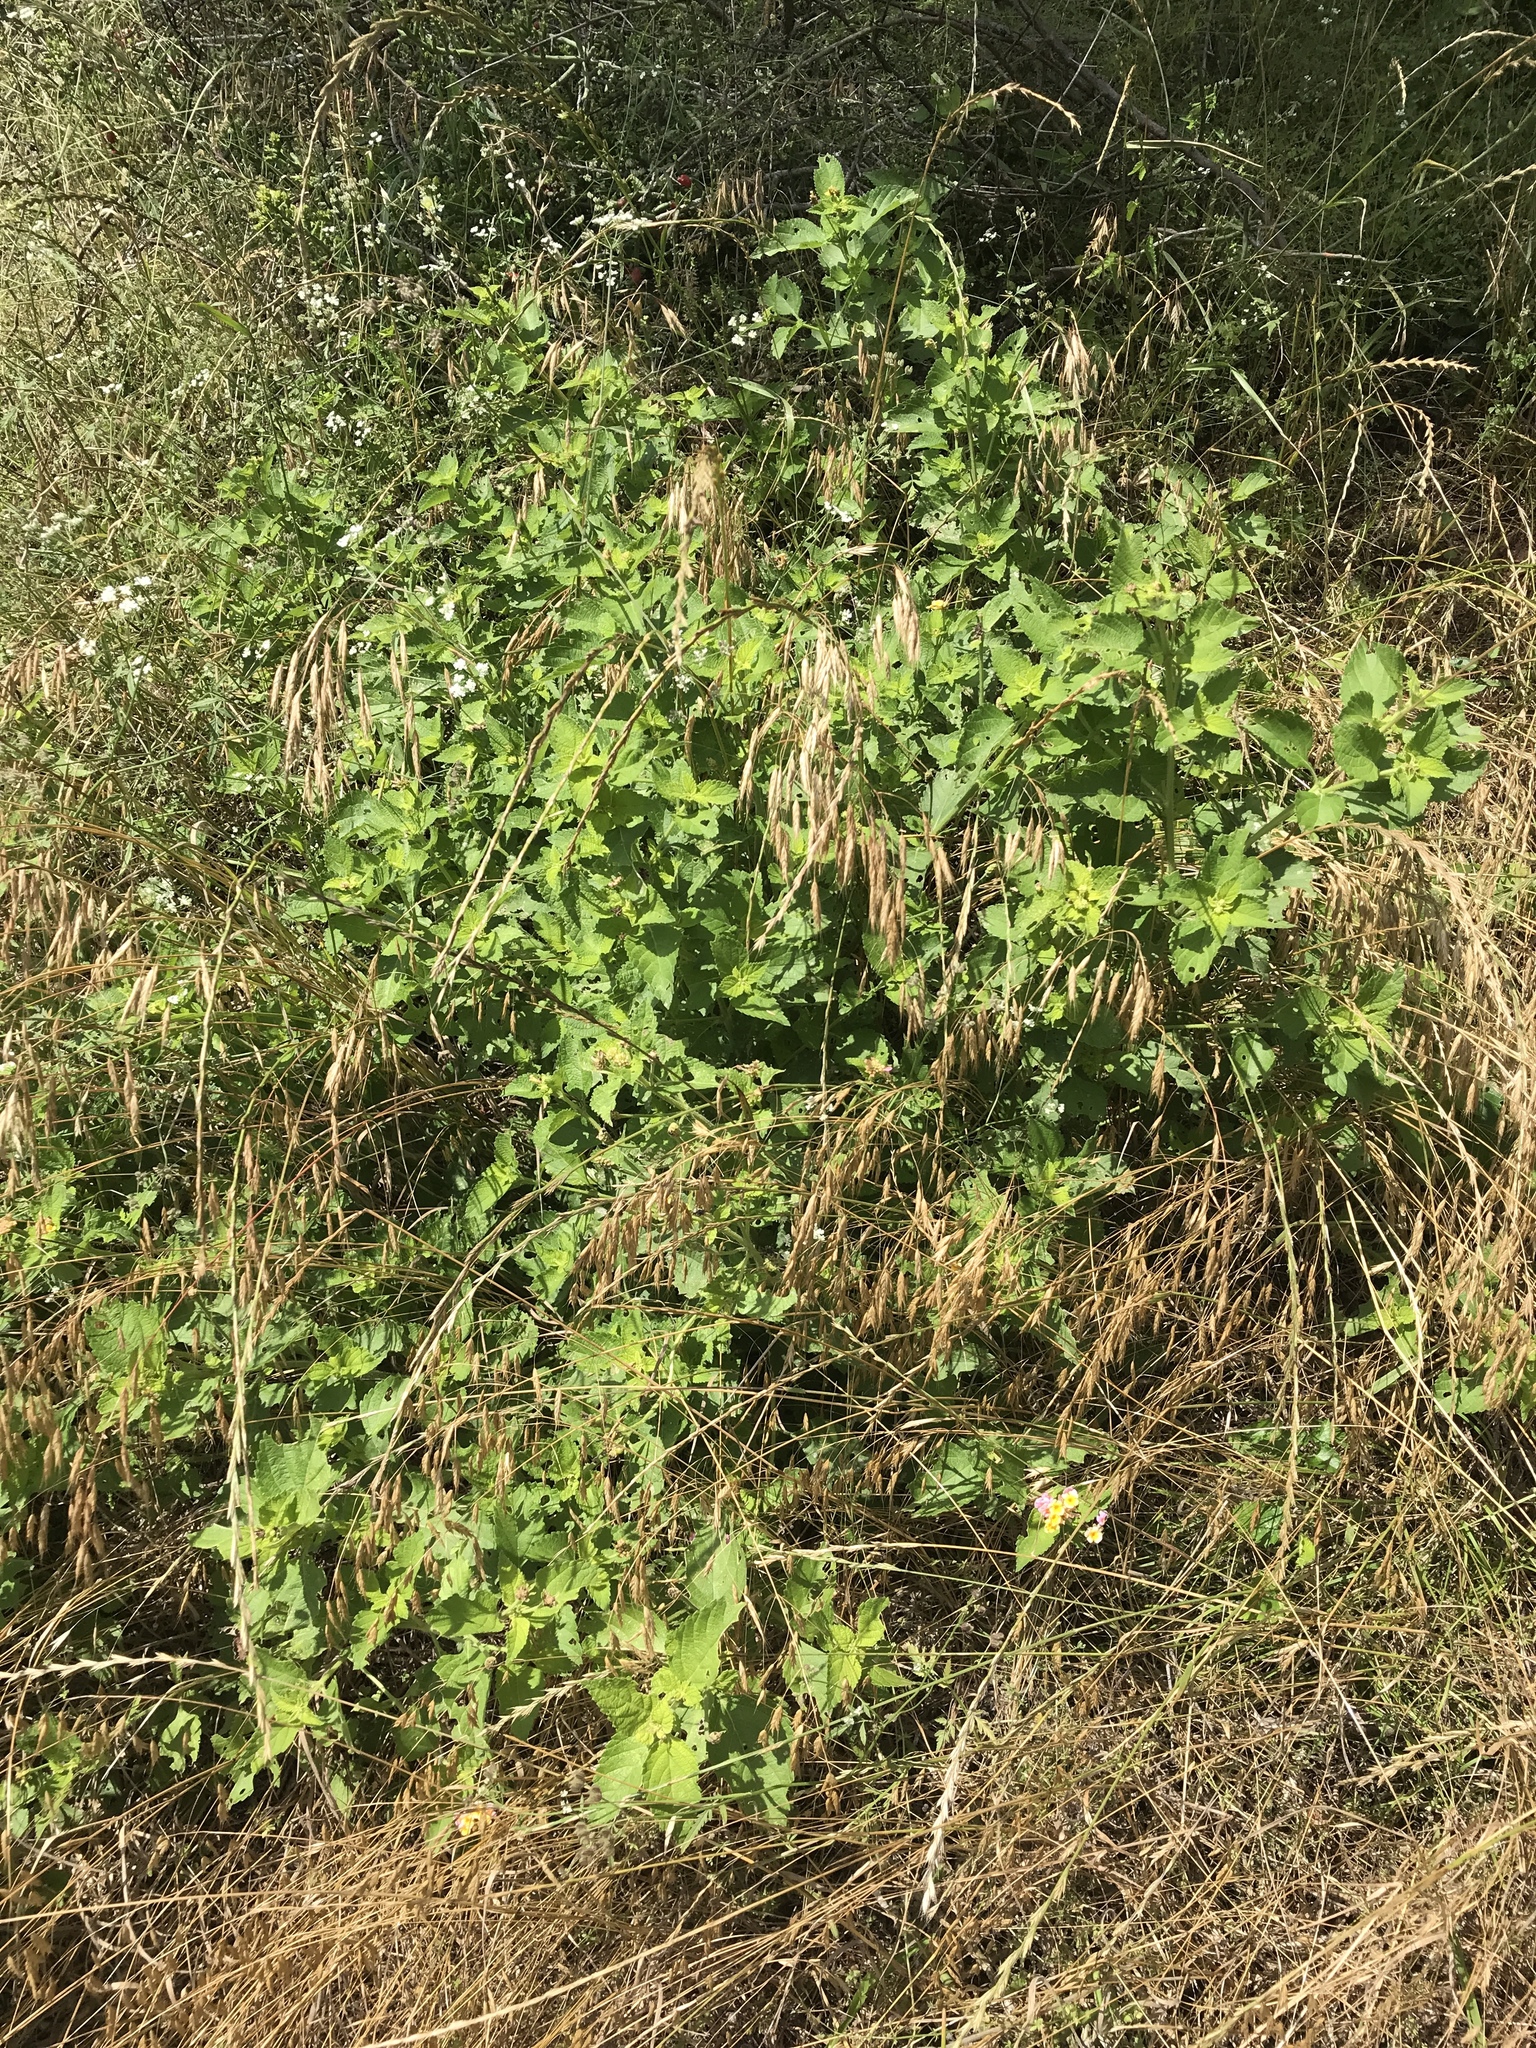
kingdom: Plantae
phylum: Tracheophyta
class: Magnoliopsida
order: Lamiales
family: Verbenaceae
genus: Lantana
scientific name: Lantana strigocamara
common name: Lantana
